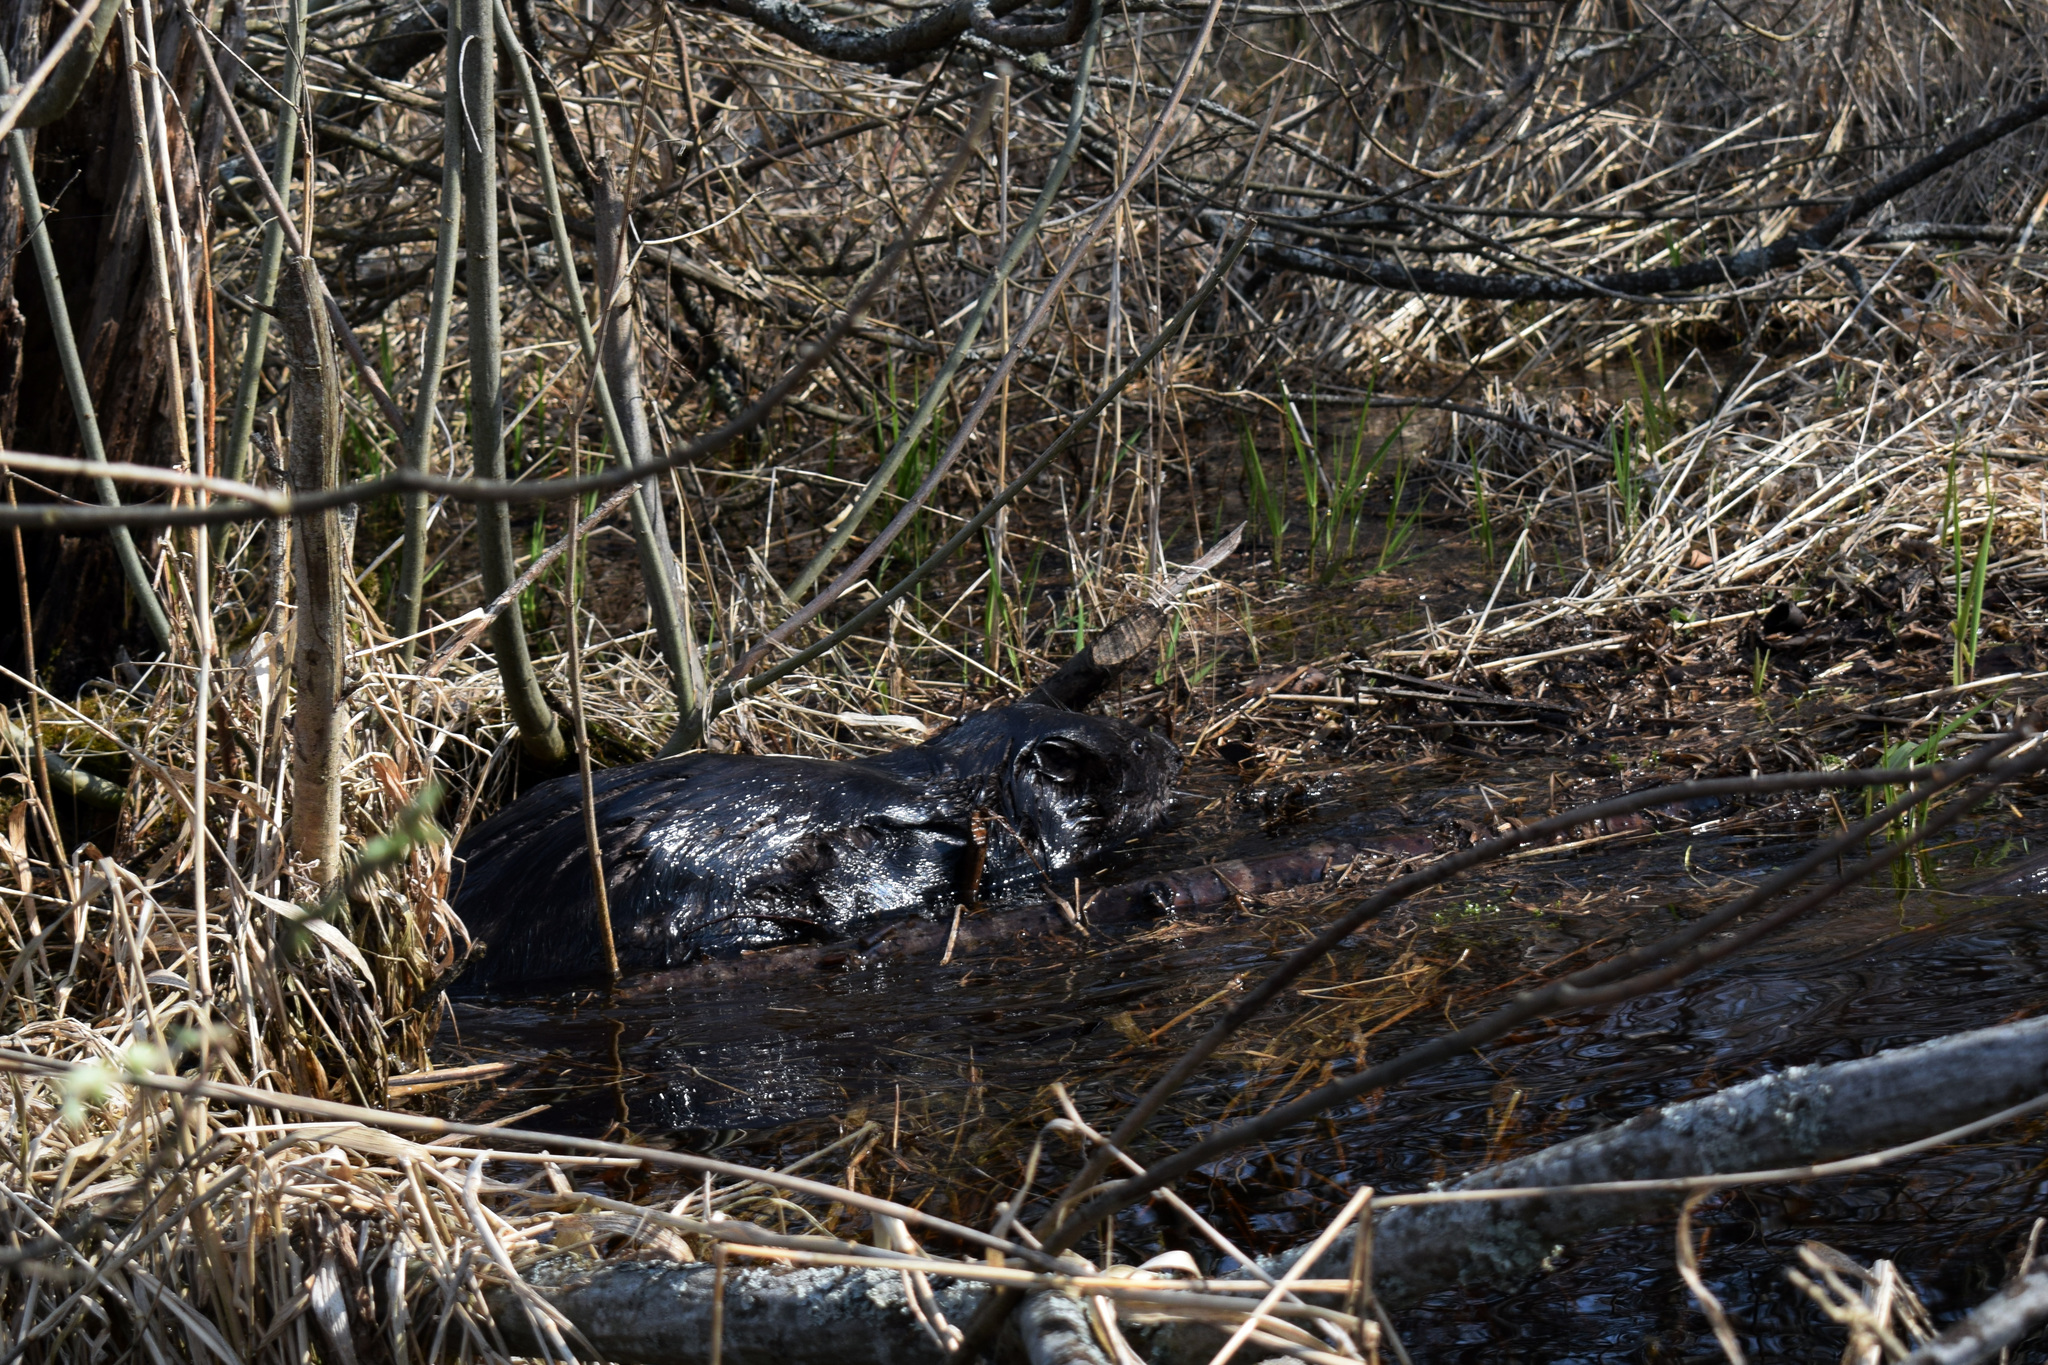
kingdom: Animalia
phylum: Chordata
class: Mammalia
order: Rodentia
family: Castoridae
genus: Castor
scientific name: Castor fiber
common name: Eurasian beaver
